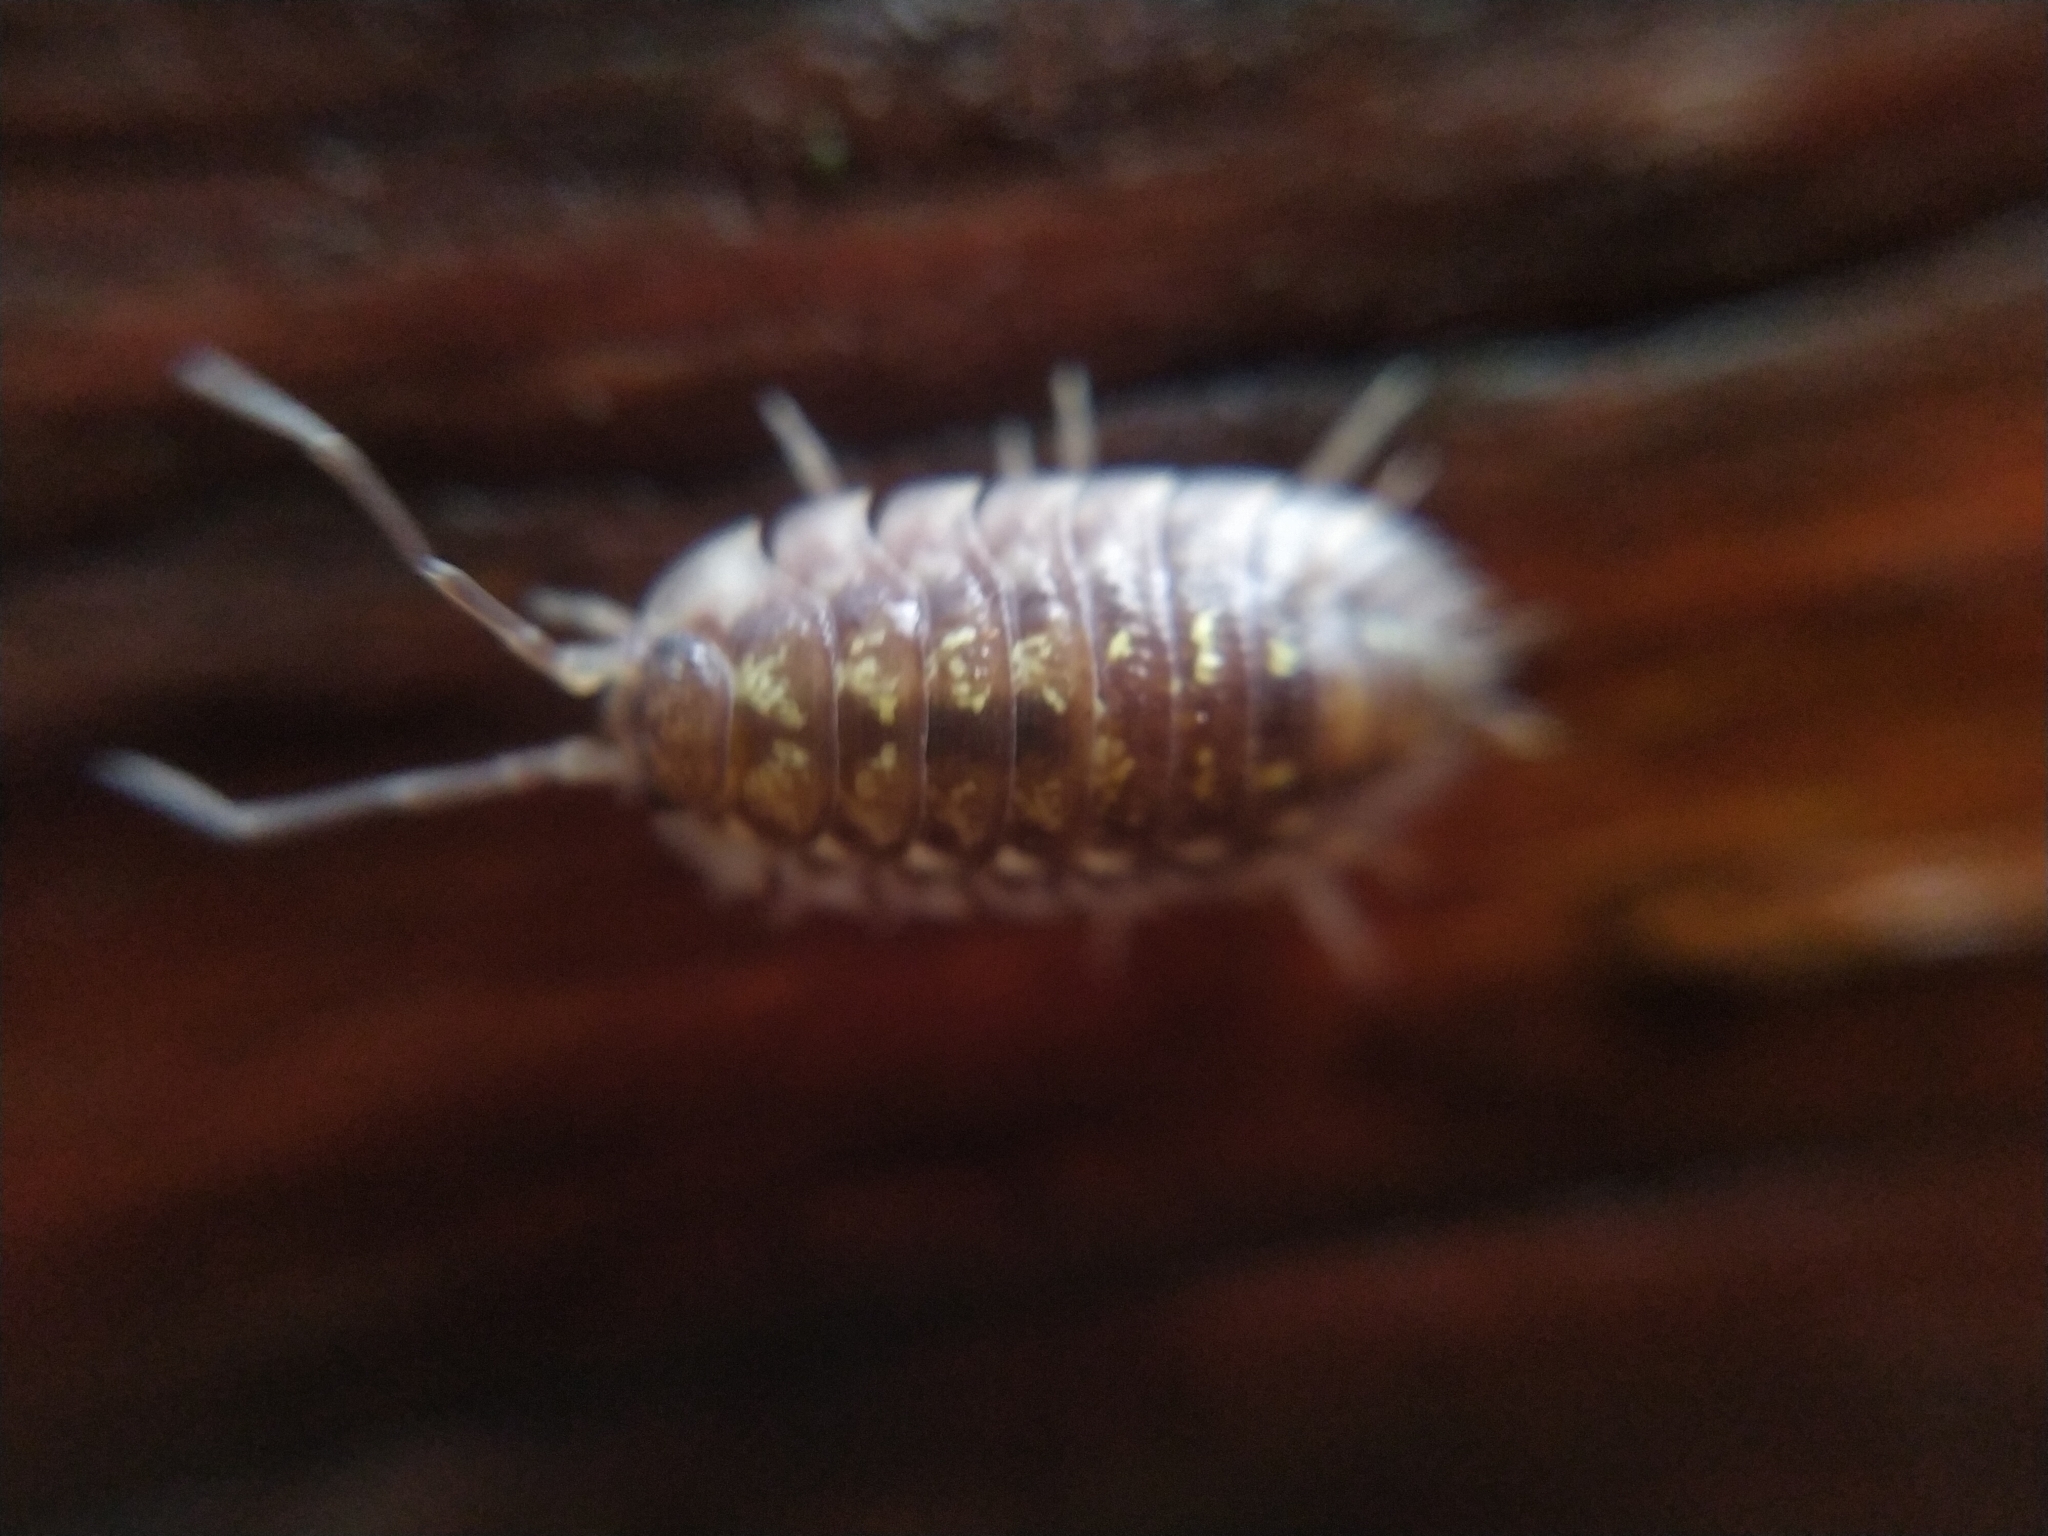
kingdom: Animalia
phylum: Arthropoda
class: Malacostraca
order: Isopoda
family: Oniscidae
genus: Oniscus
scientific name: Oniscus asellus
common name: Common shiny woodlouse
